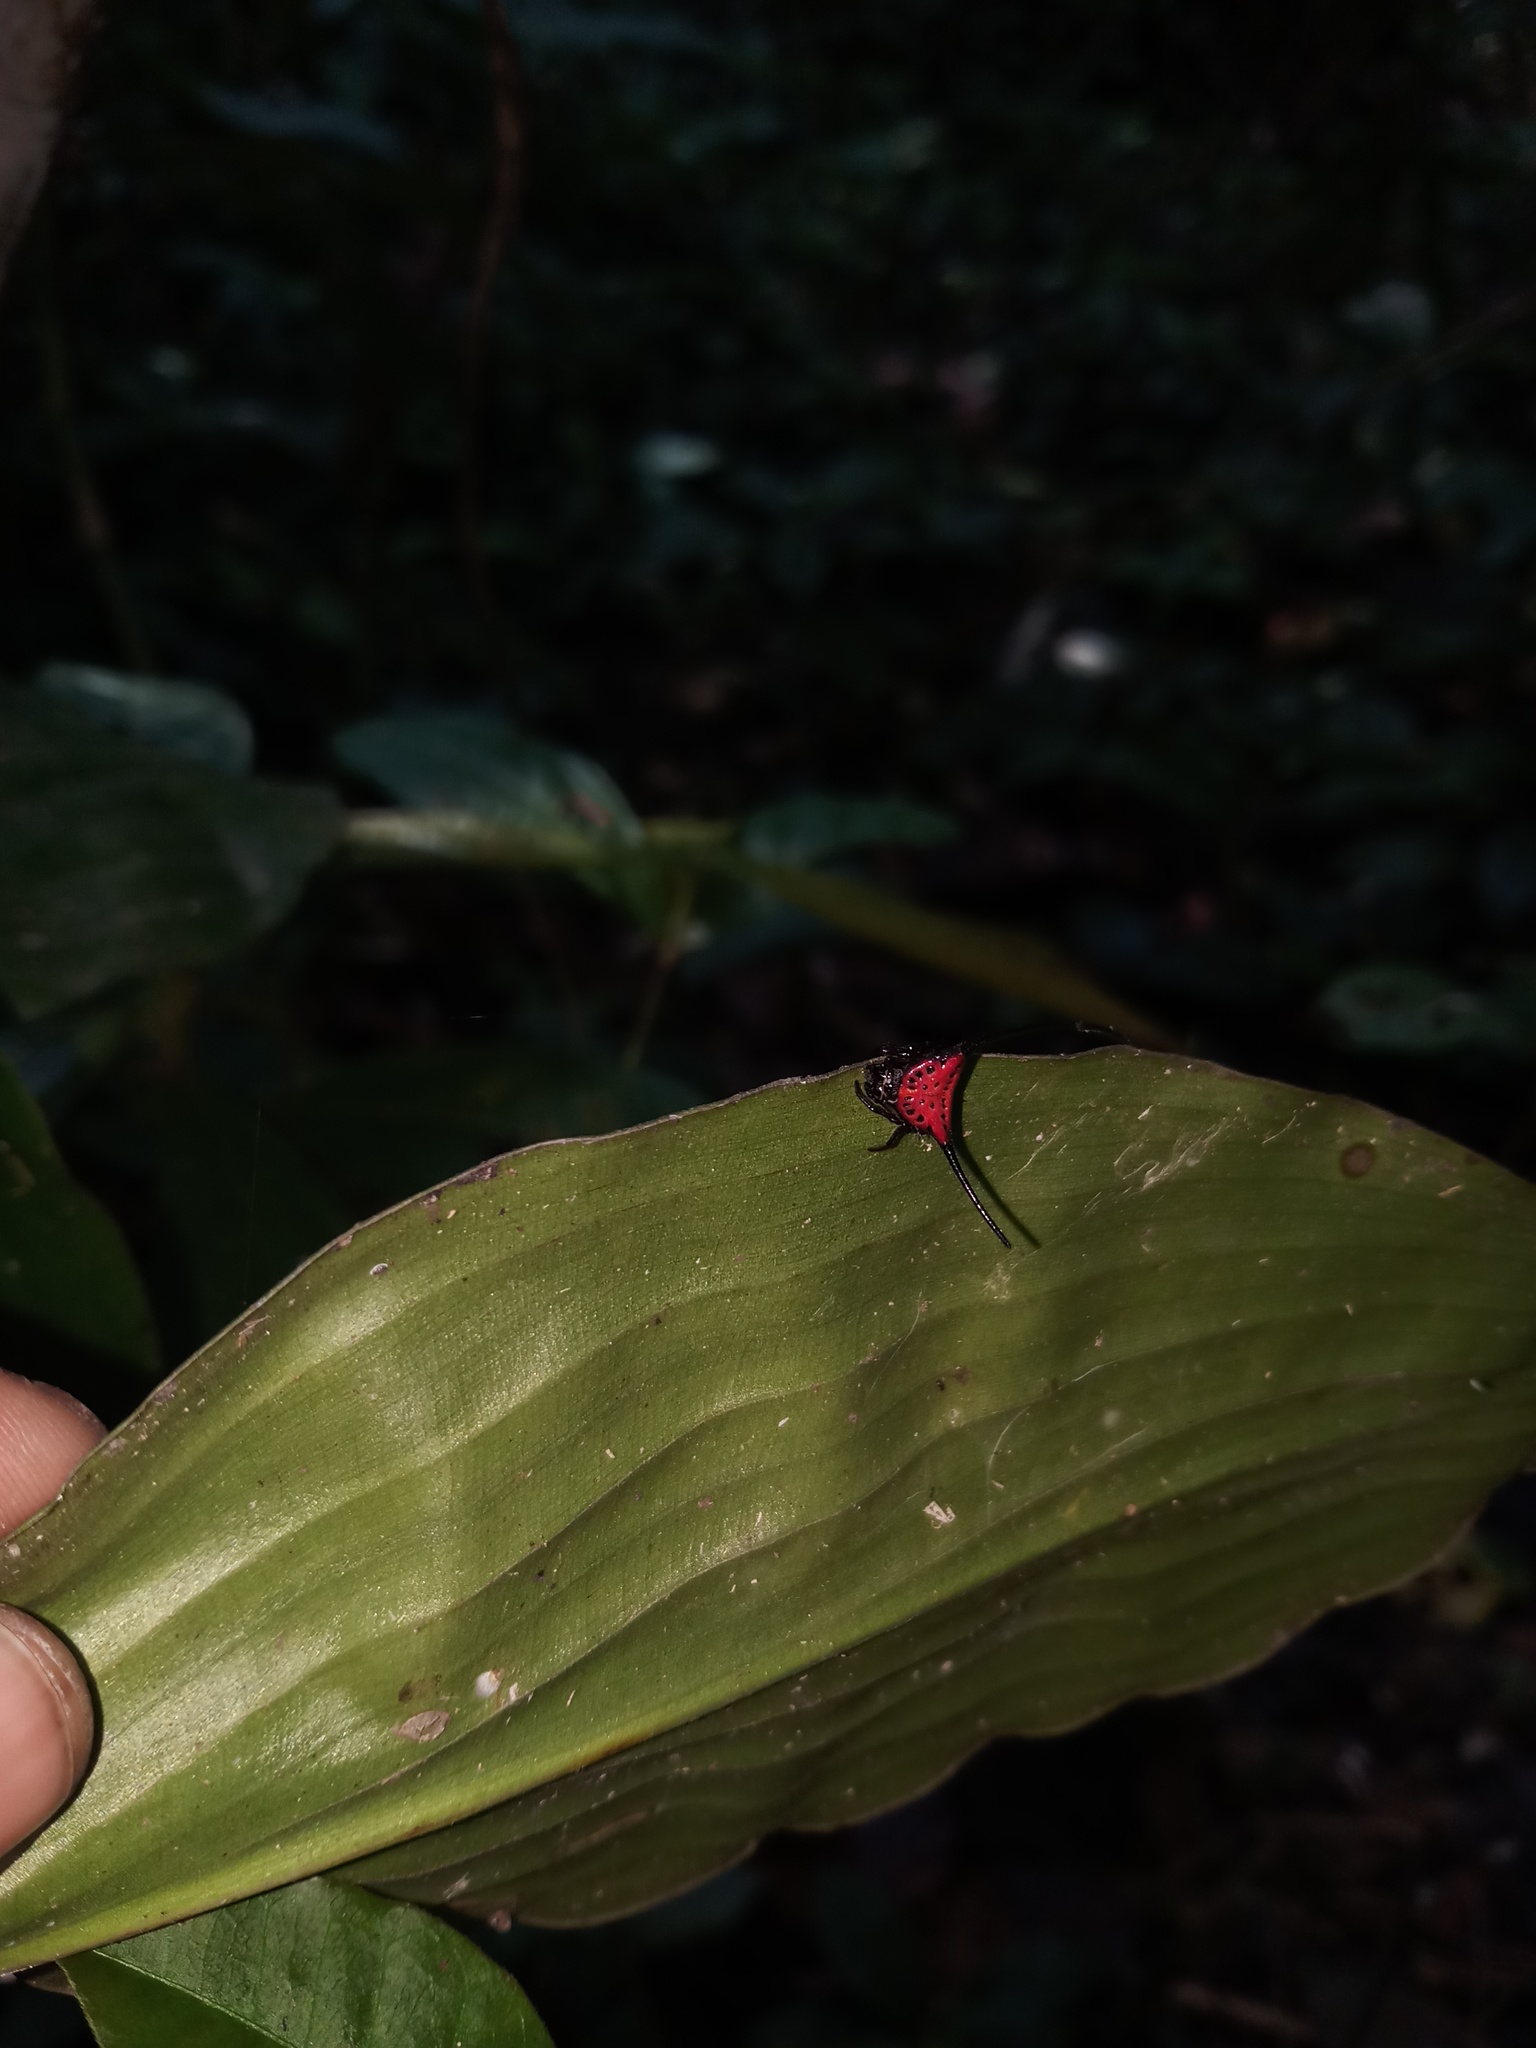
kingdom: Animalia
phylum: Arthropoda
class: Arachnida
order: Araneae
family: Araneidae
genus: Macracantha
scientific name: Macracantha arcuata
